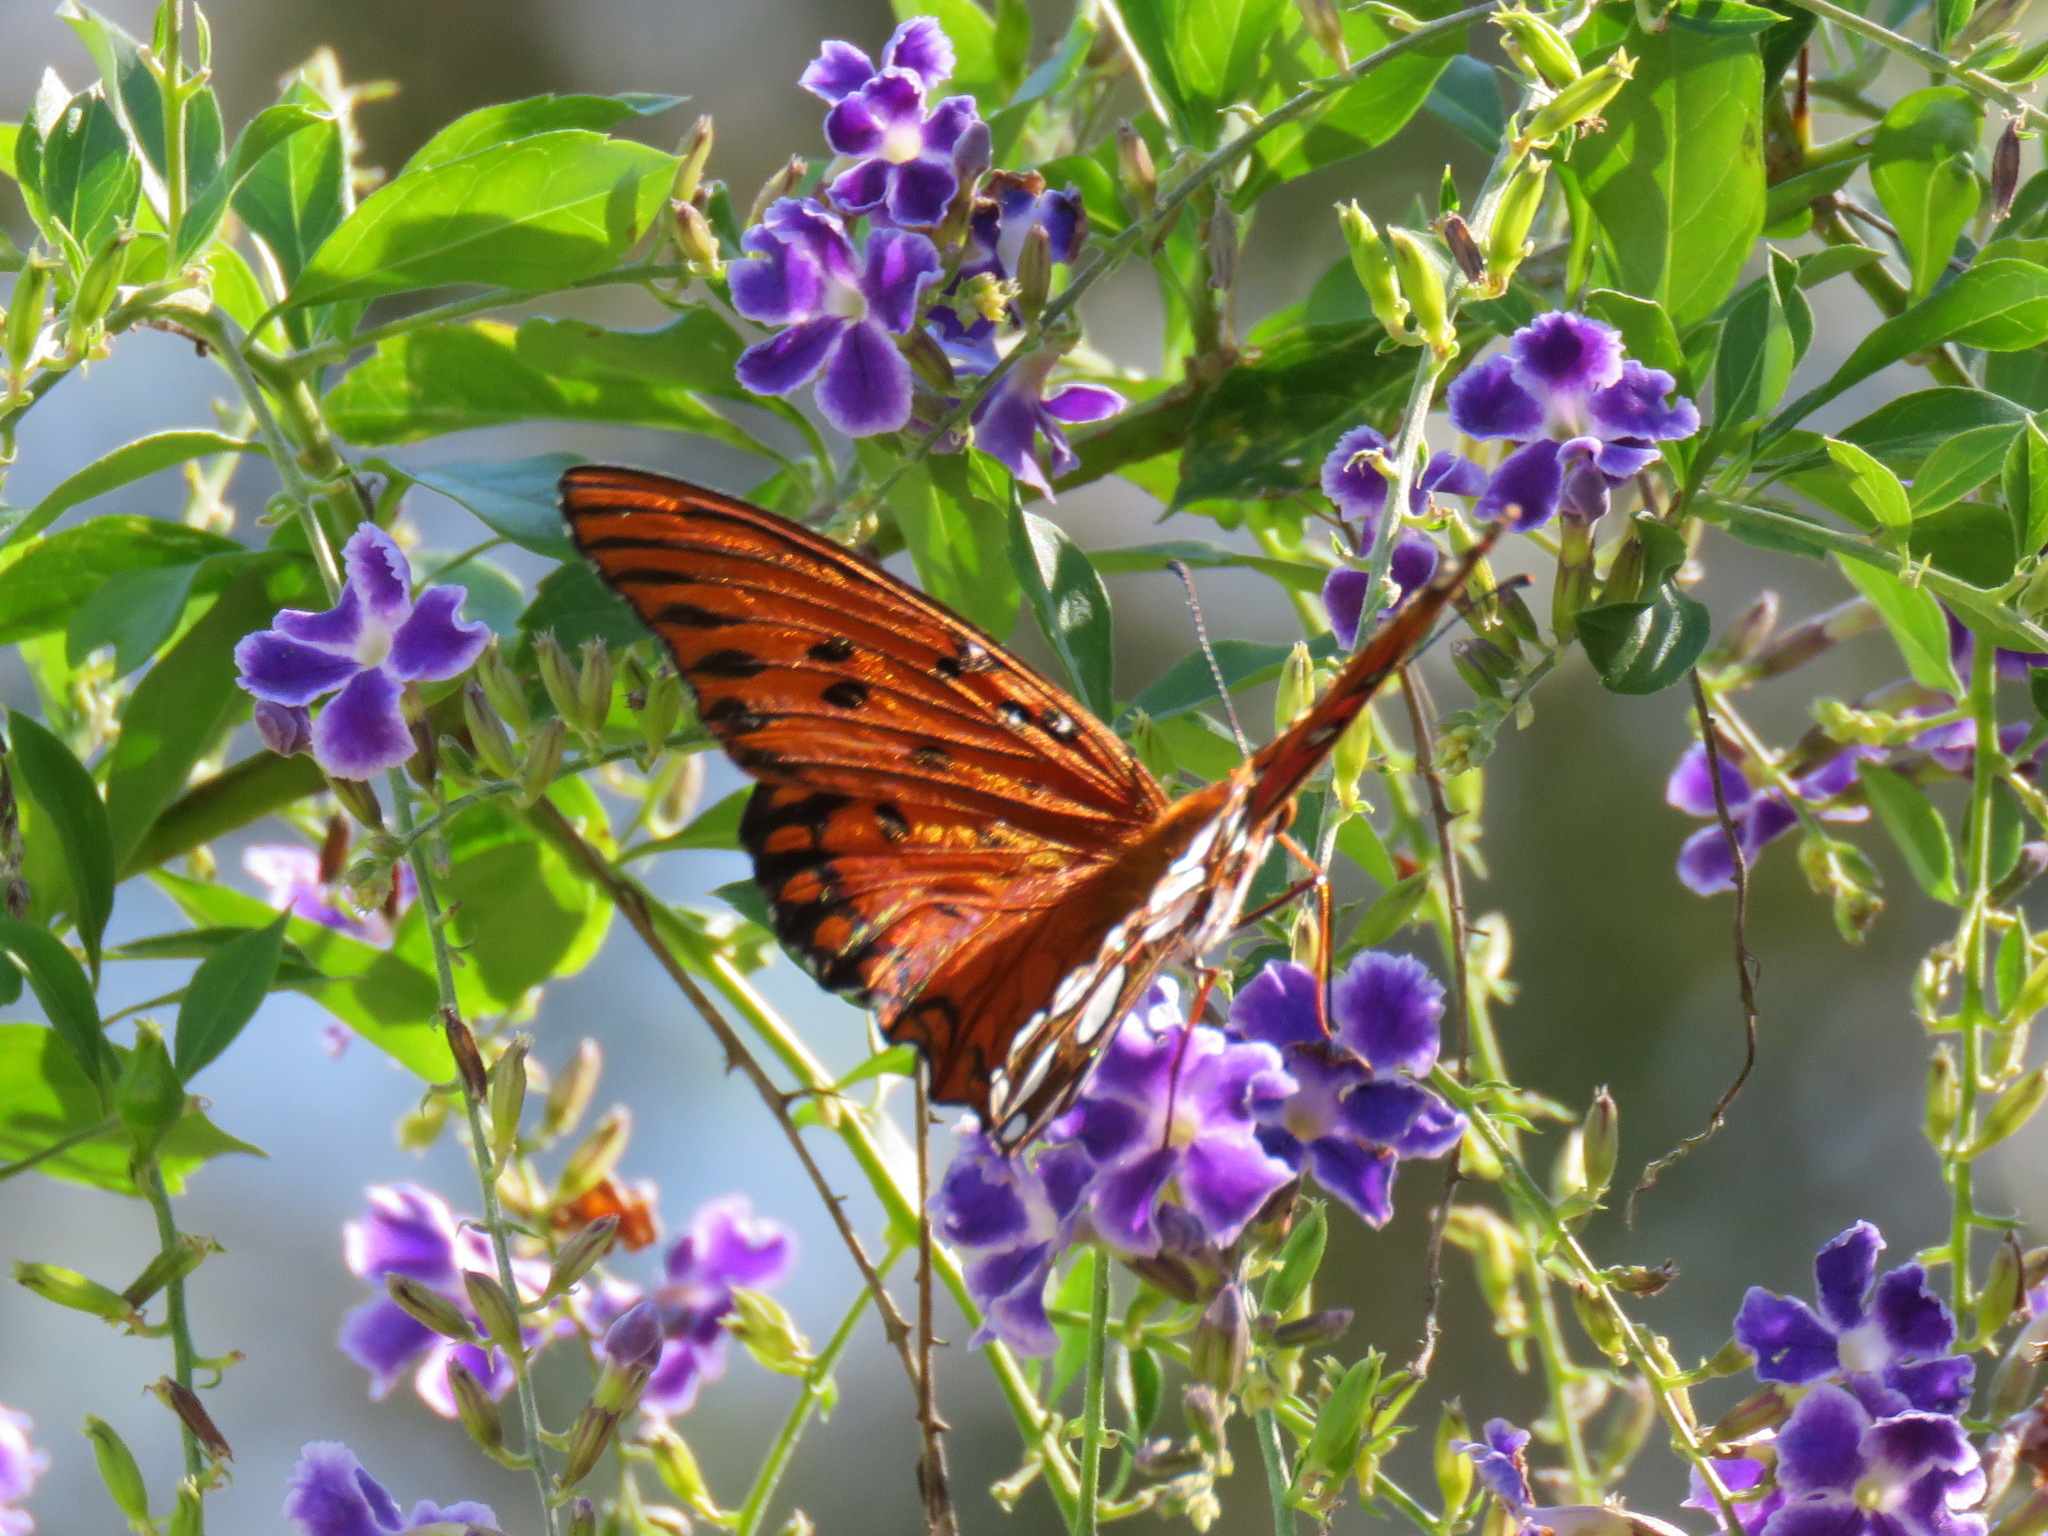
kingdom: Animalia
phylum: Arthropoda
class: Insecta
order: Lepidoptera
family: Nymphalidae
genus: Dione
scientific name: Dione vanillae
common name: Gulf fritillary
